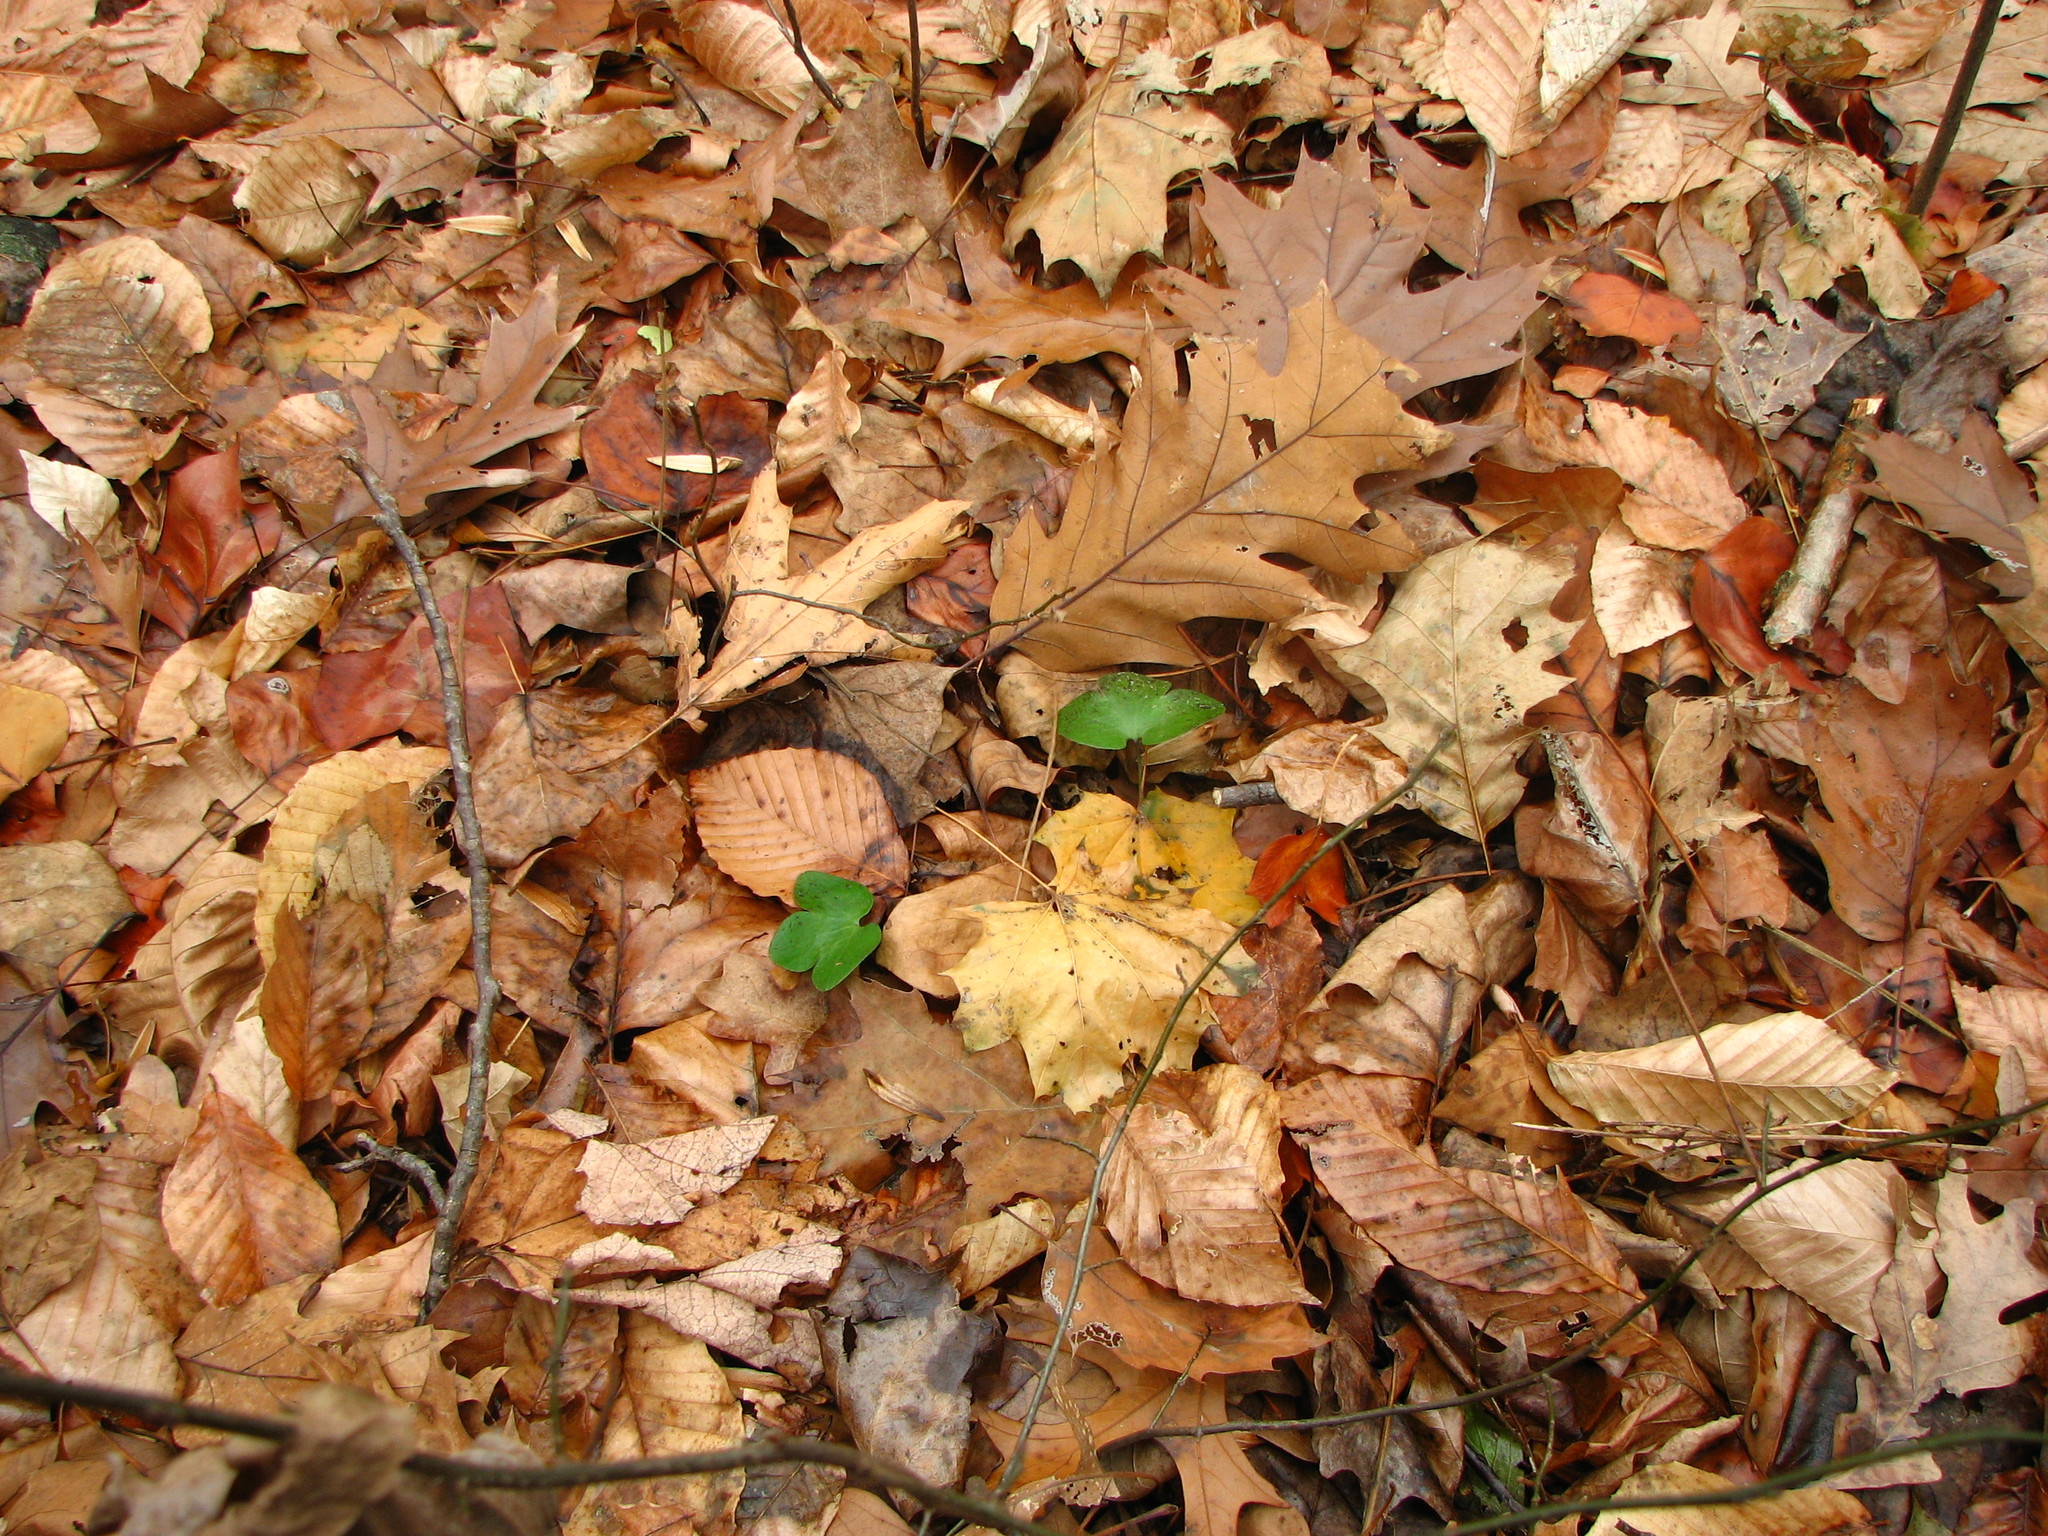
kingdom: Plantae
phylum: Tracheophyta
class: Magnoliopsida
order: Ranunculales
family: Ranunculaceae
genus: Hepatica
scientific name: Hepatica americana
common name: American hepatica
